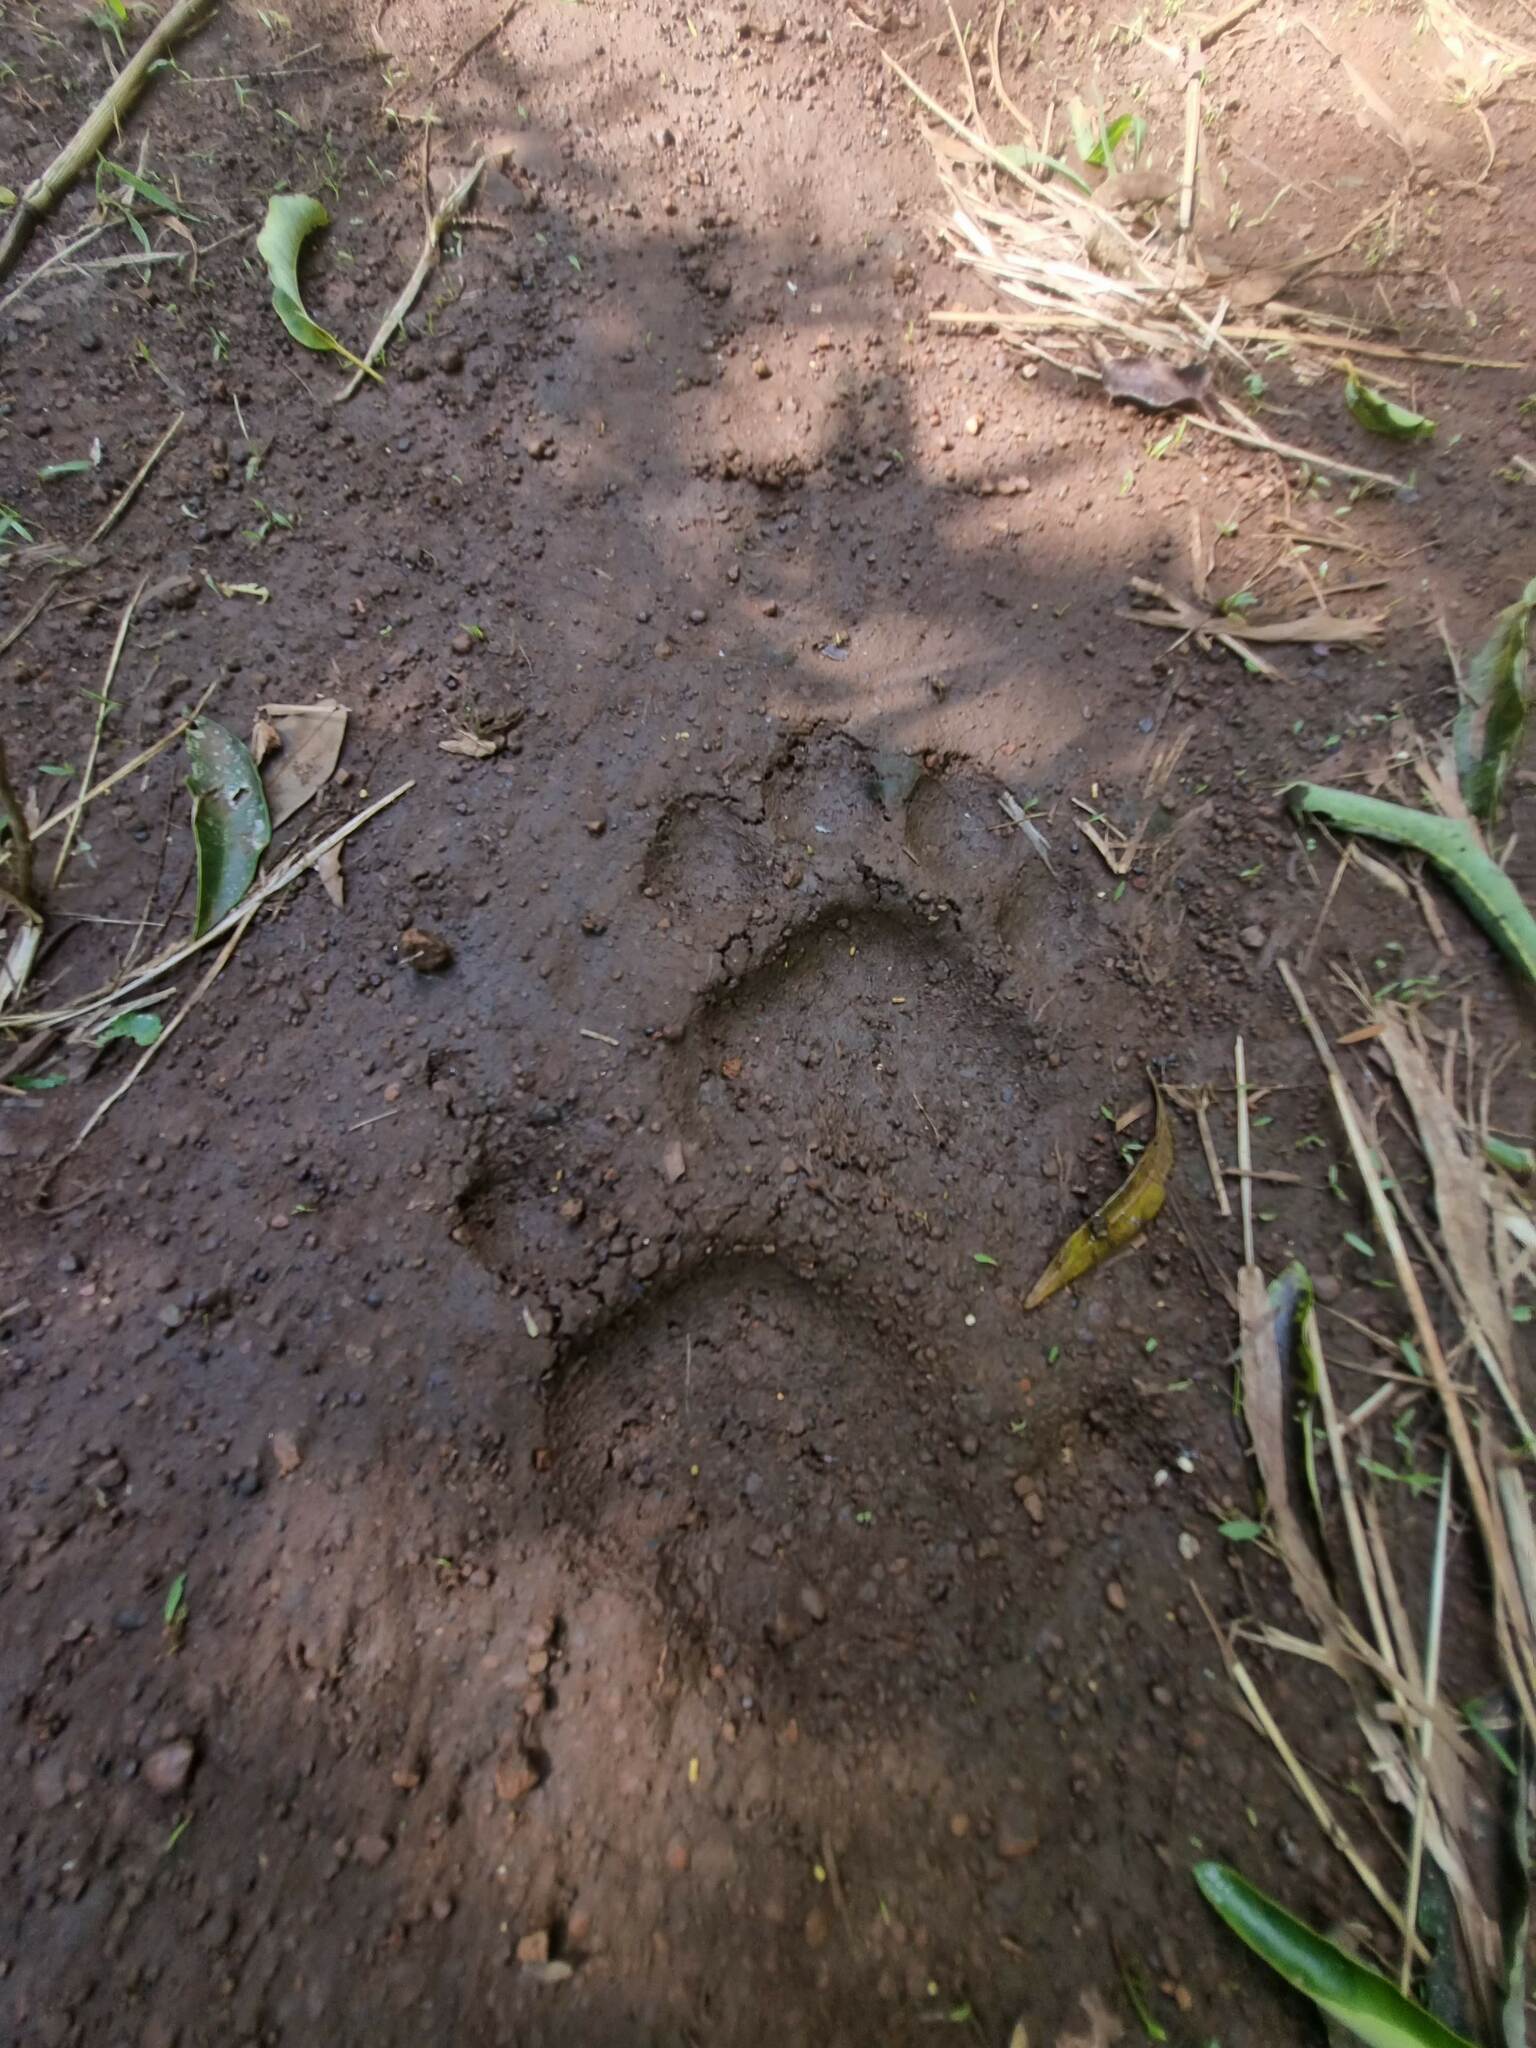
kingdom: Animalia
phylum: Chordata
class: Mammalia
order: Carnivora
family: Felidae
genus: Panthera
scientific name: Panthera onca
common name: Jaguar
